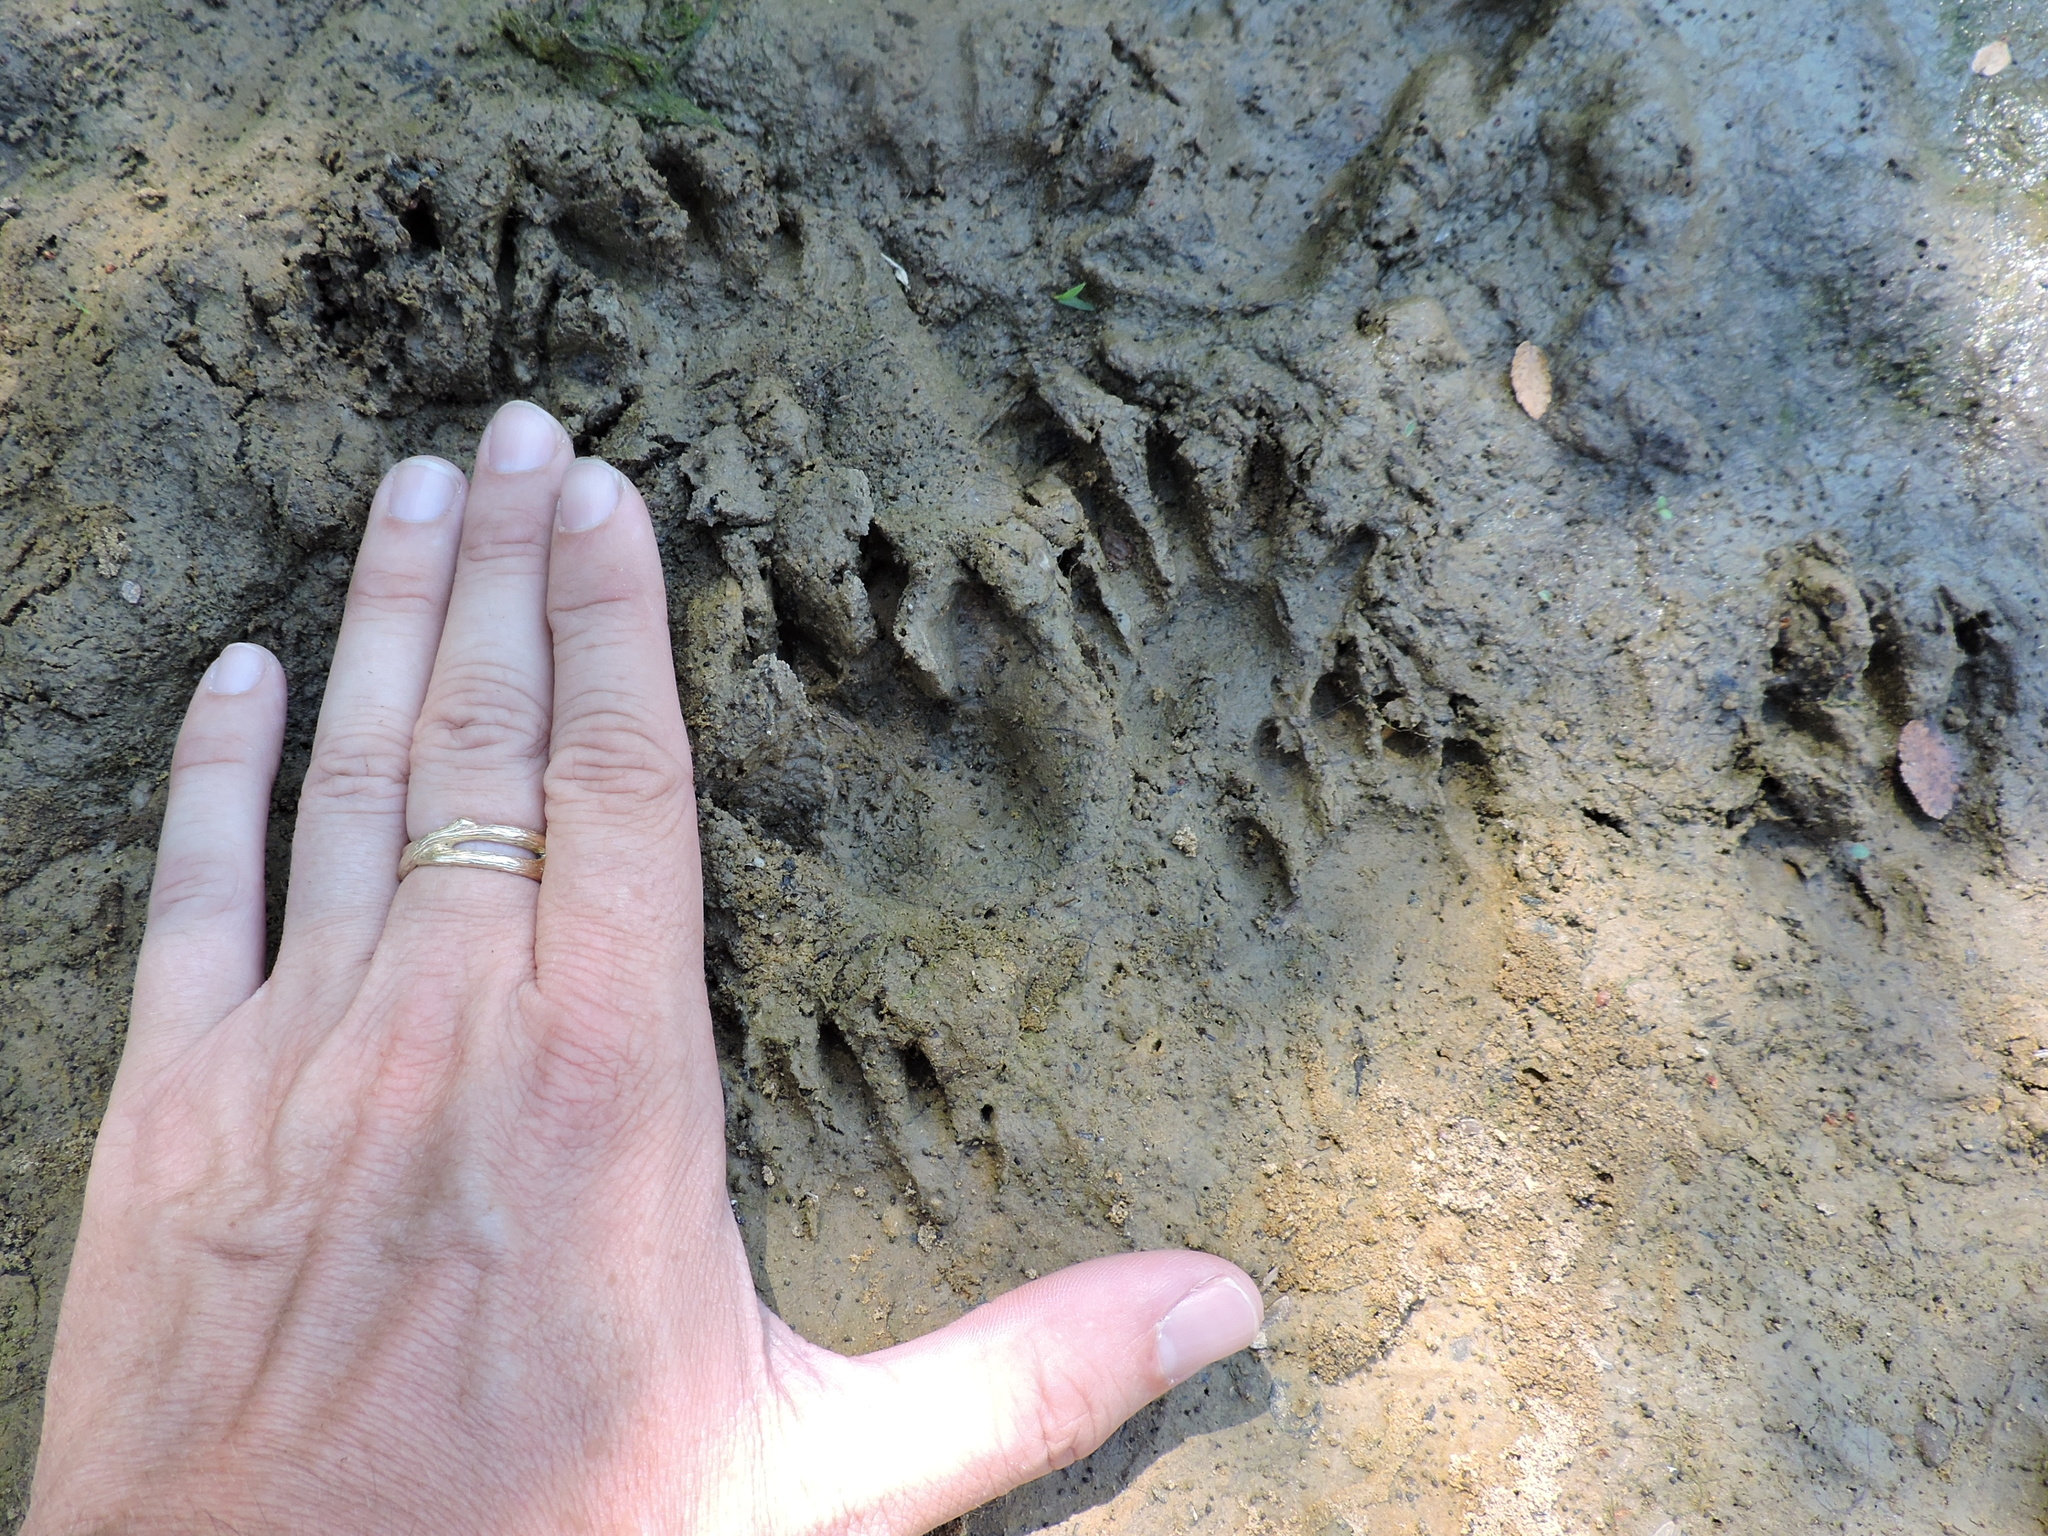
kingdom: Animalia
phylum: Chordata
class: Mammalia
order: Carnivora
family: Procyonidae
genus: Procyon
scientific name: Procyon lotor
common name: Raccoon
